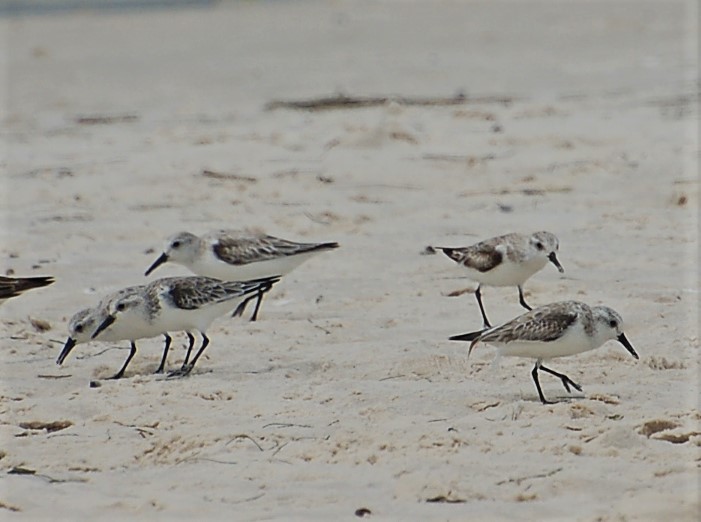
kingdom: Animalia
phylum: Chordata
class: Aves
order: Charadriiformes
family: Scolopacidae
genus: Calidris
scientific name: Calidris alba
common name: Sanderling
